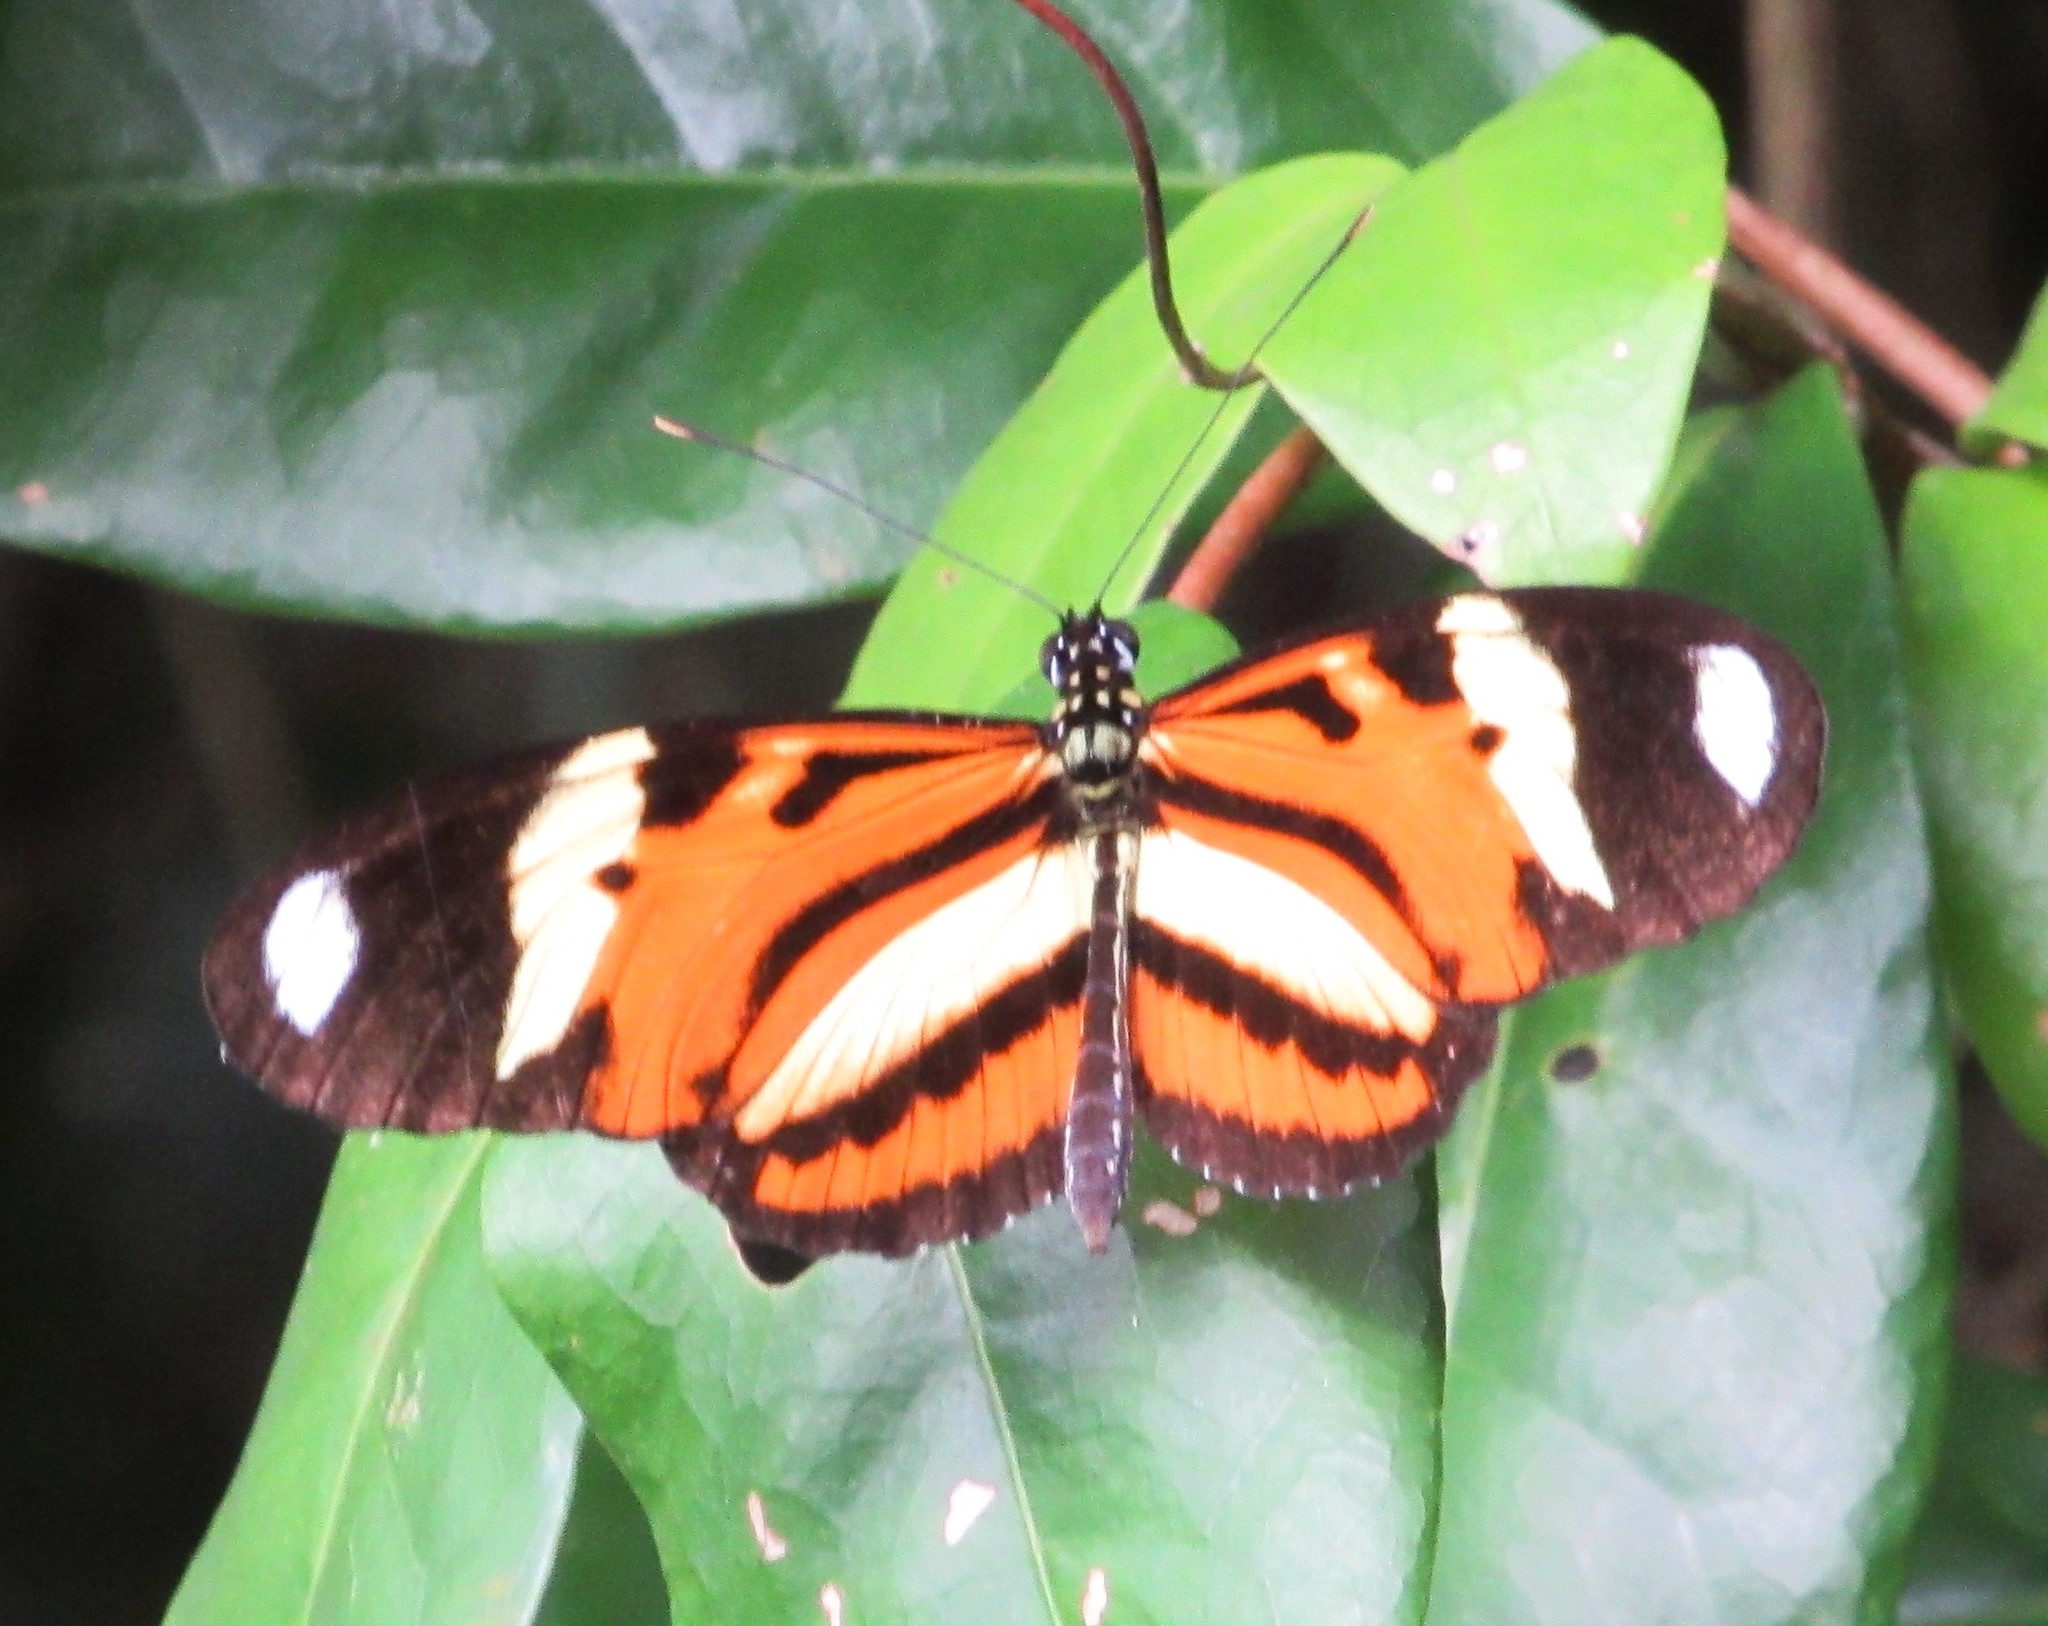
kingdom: Animalia
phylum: Arthropoda
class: Insecta
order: Lepidoptera
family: Nymphalidae
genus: Heliconius
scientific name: Heliconius ethilla
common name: Ethilia longwing
